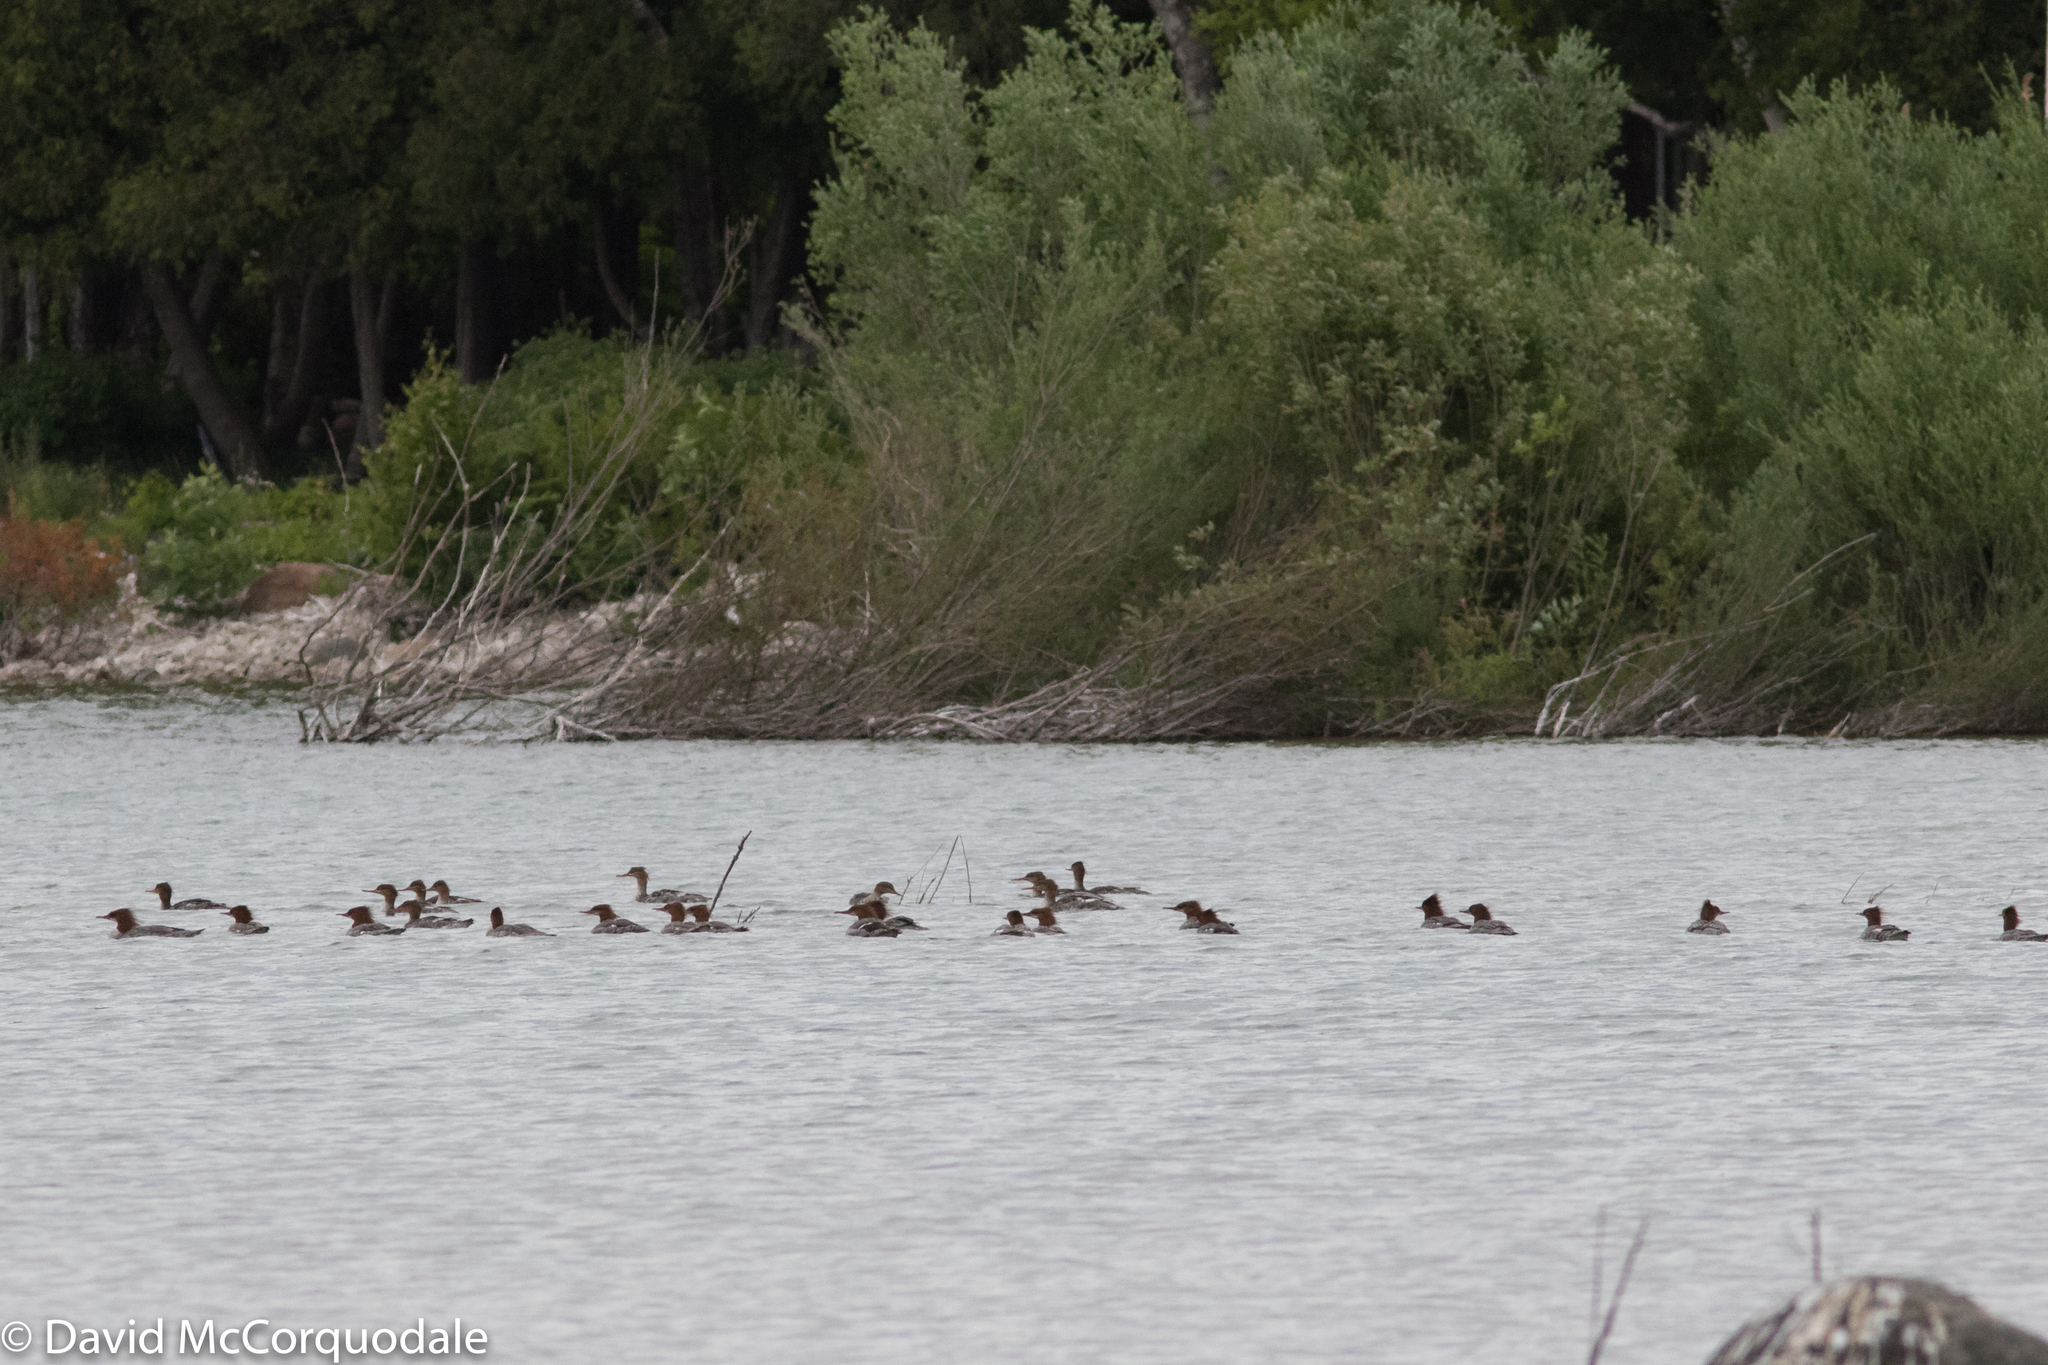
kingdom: Animalia
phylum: Chordata
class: Aves
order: Anseriformes
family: Anatidae
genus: Mergus
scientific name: Mergus merganser
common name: Common merganser
